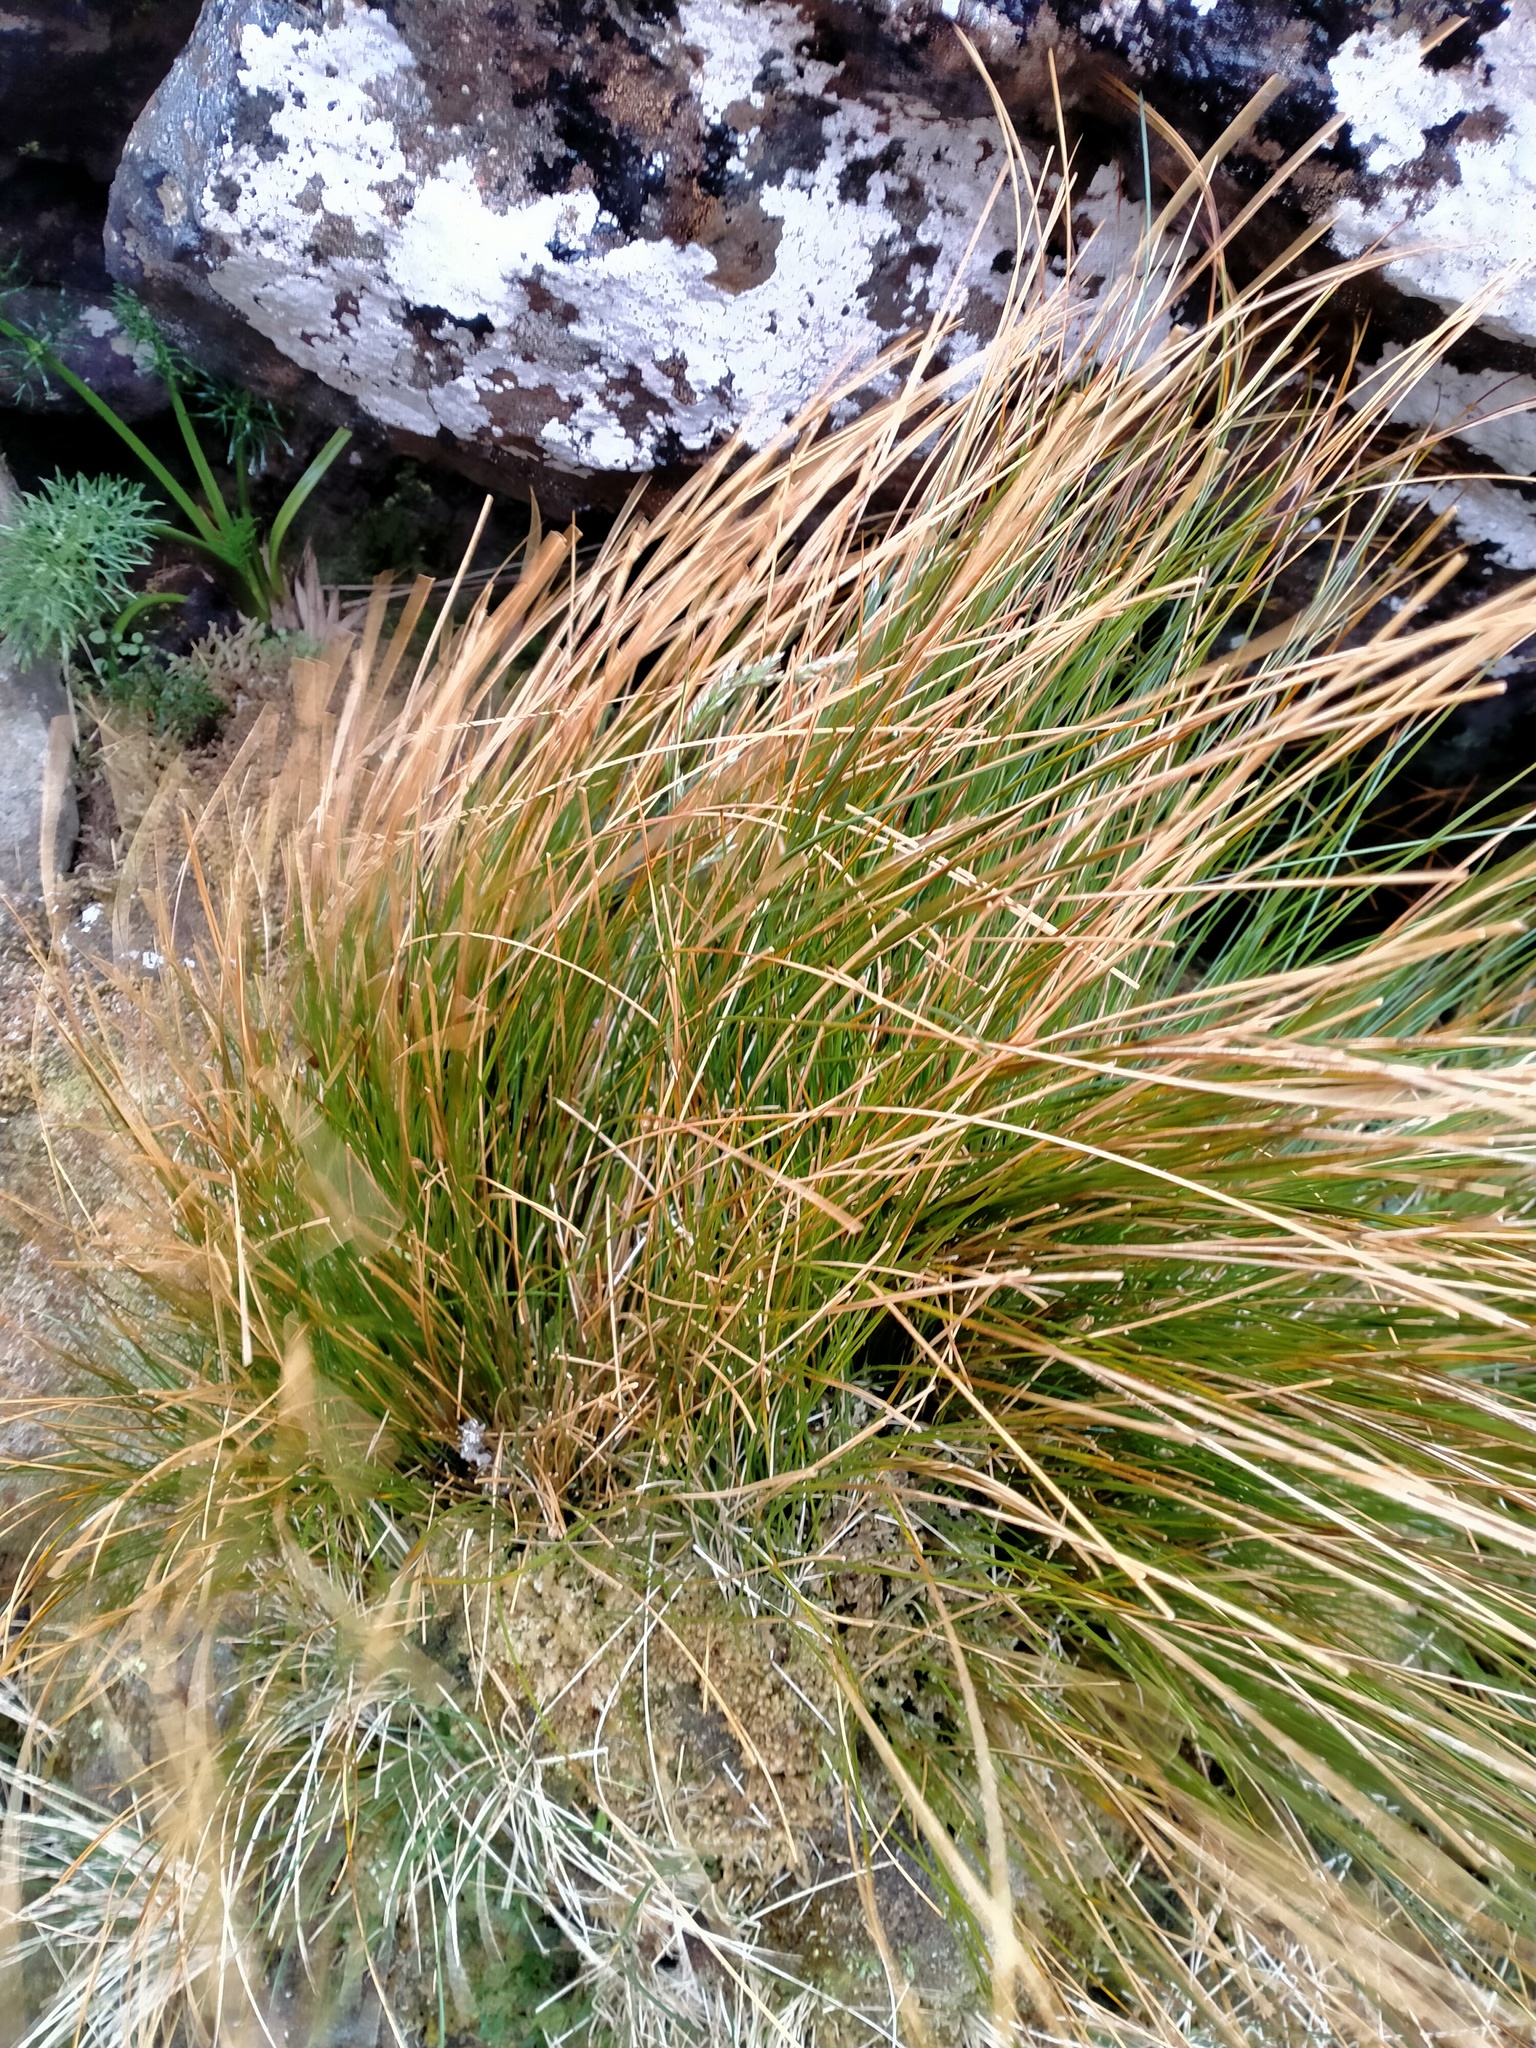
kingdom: Plantae
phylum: Tracheophyta
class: Liliopsida
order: Poales
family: Juncaceae
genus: Marsippospermum
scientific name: Marsippospermum gracile
